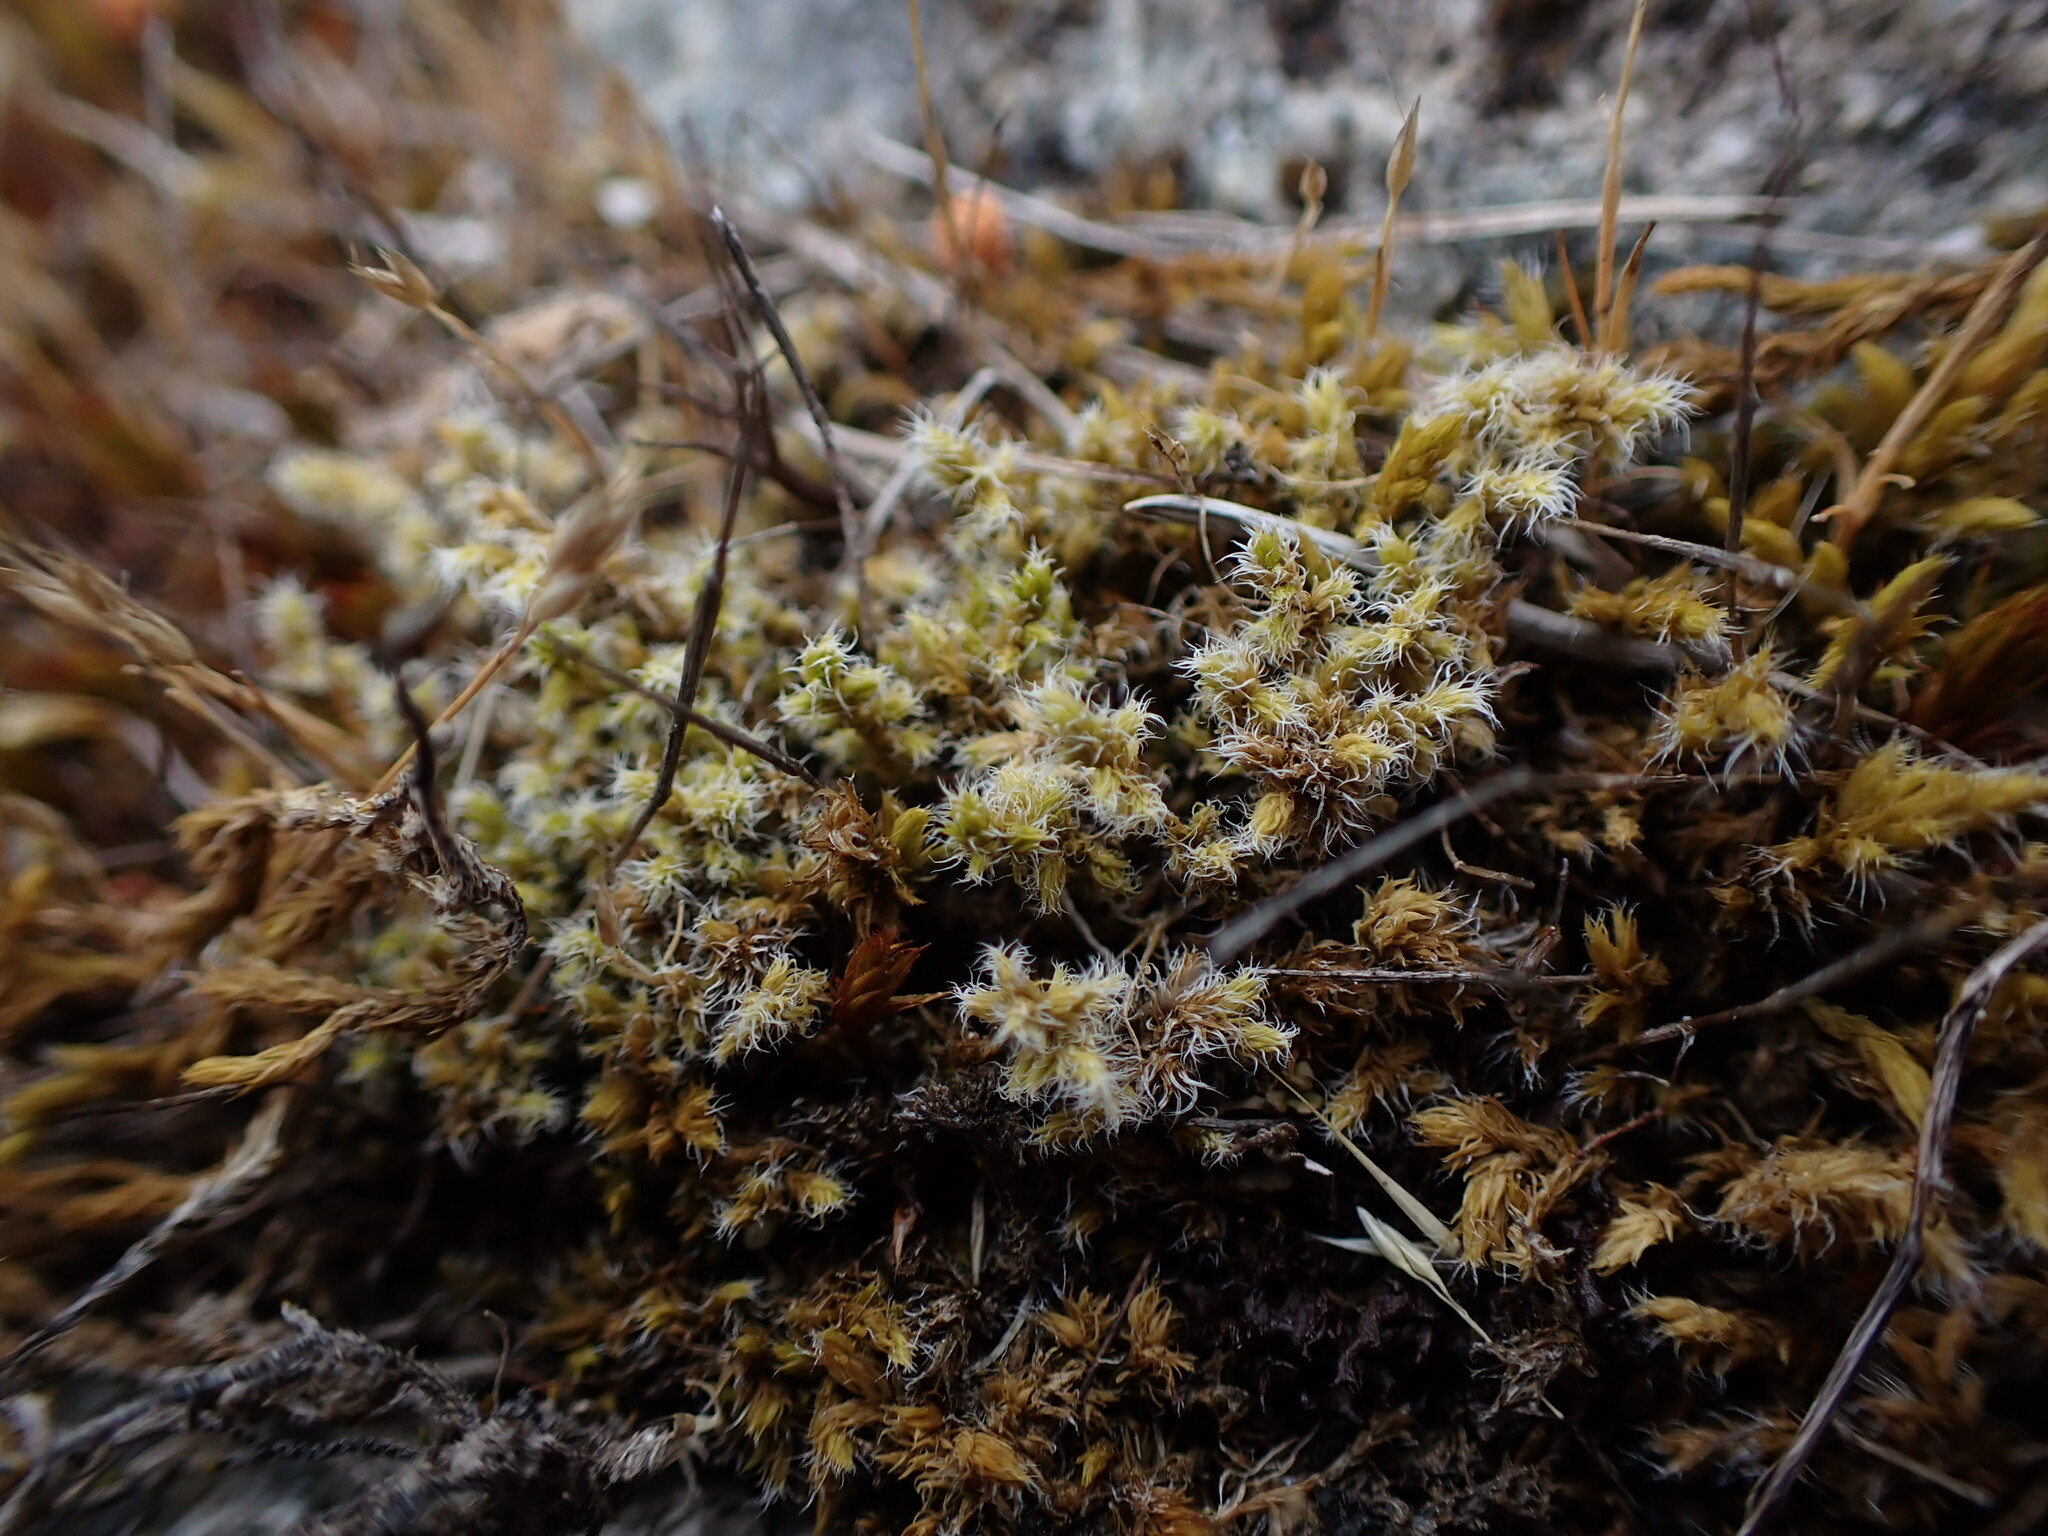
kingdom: Plantae
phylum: Bryophyta
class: Bryopsida
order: Grimmiales
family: Grimmiaceae
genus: Niphotrichum
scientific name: Niphotrichum elongatum
